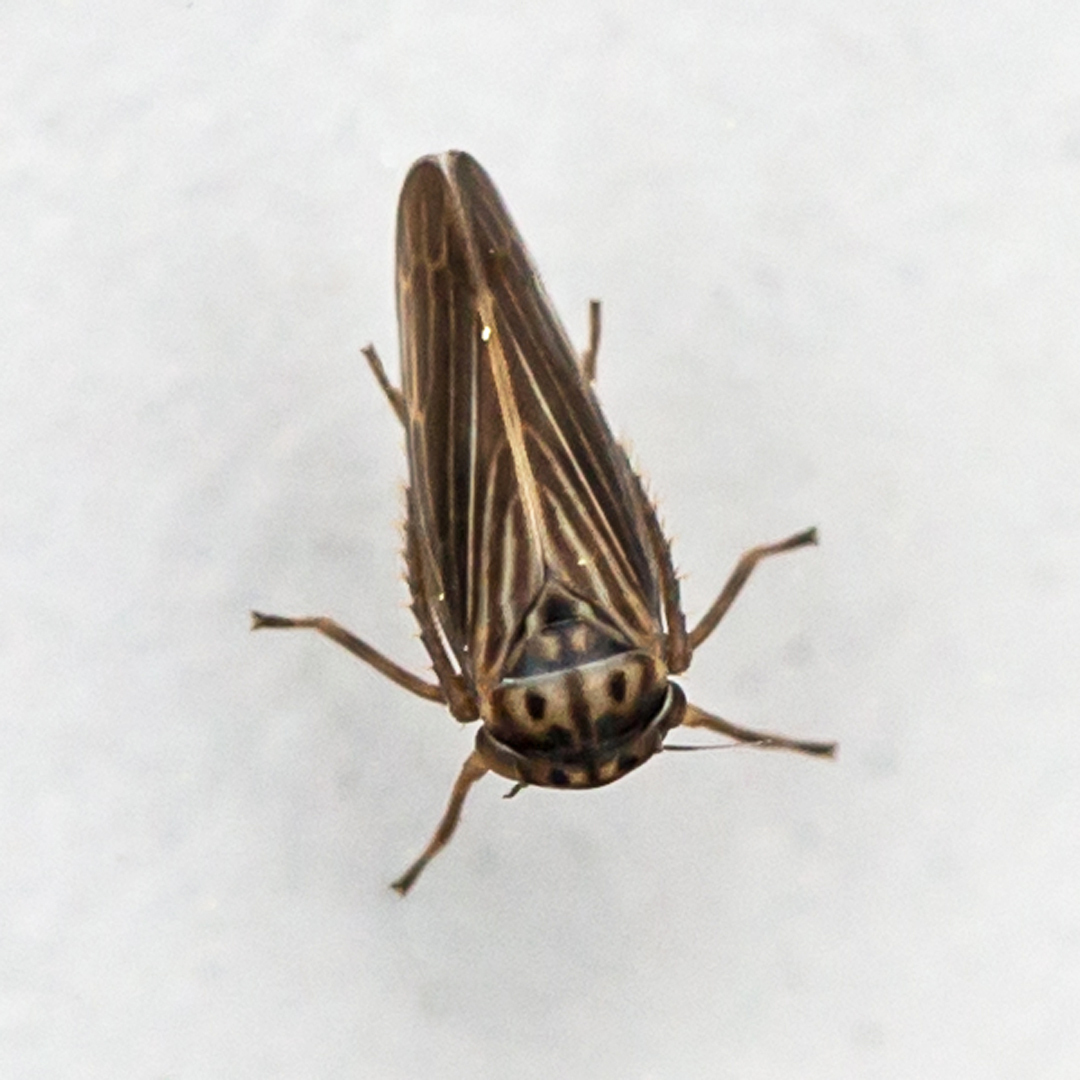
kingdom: Animalia
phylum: Arthropoda
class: Insecta
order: Hemiptera
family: Cicadellidae
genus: Agallia
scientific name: Agallia constricta
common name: The constricted leafhopper
